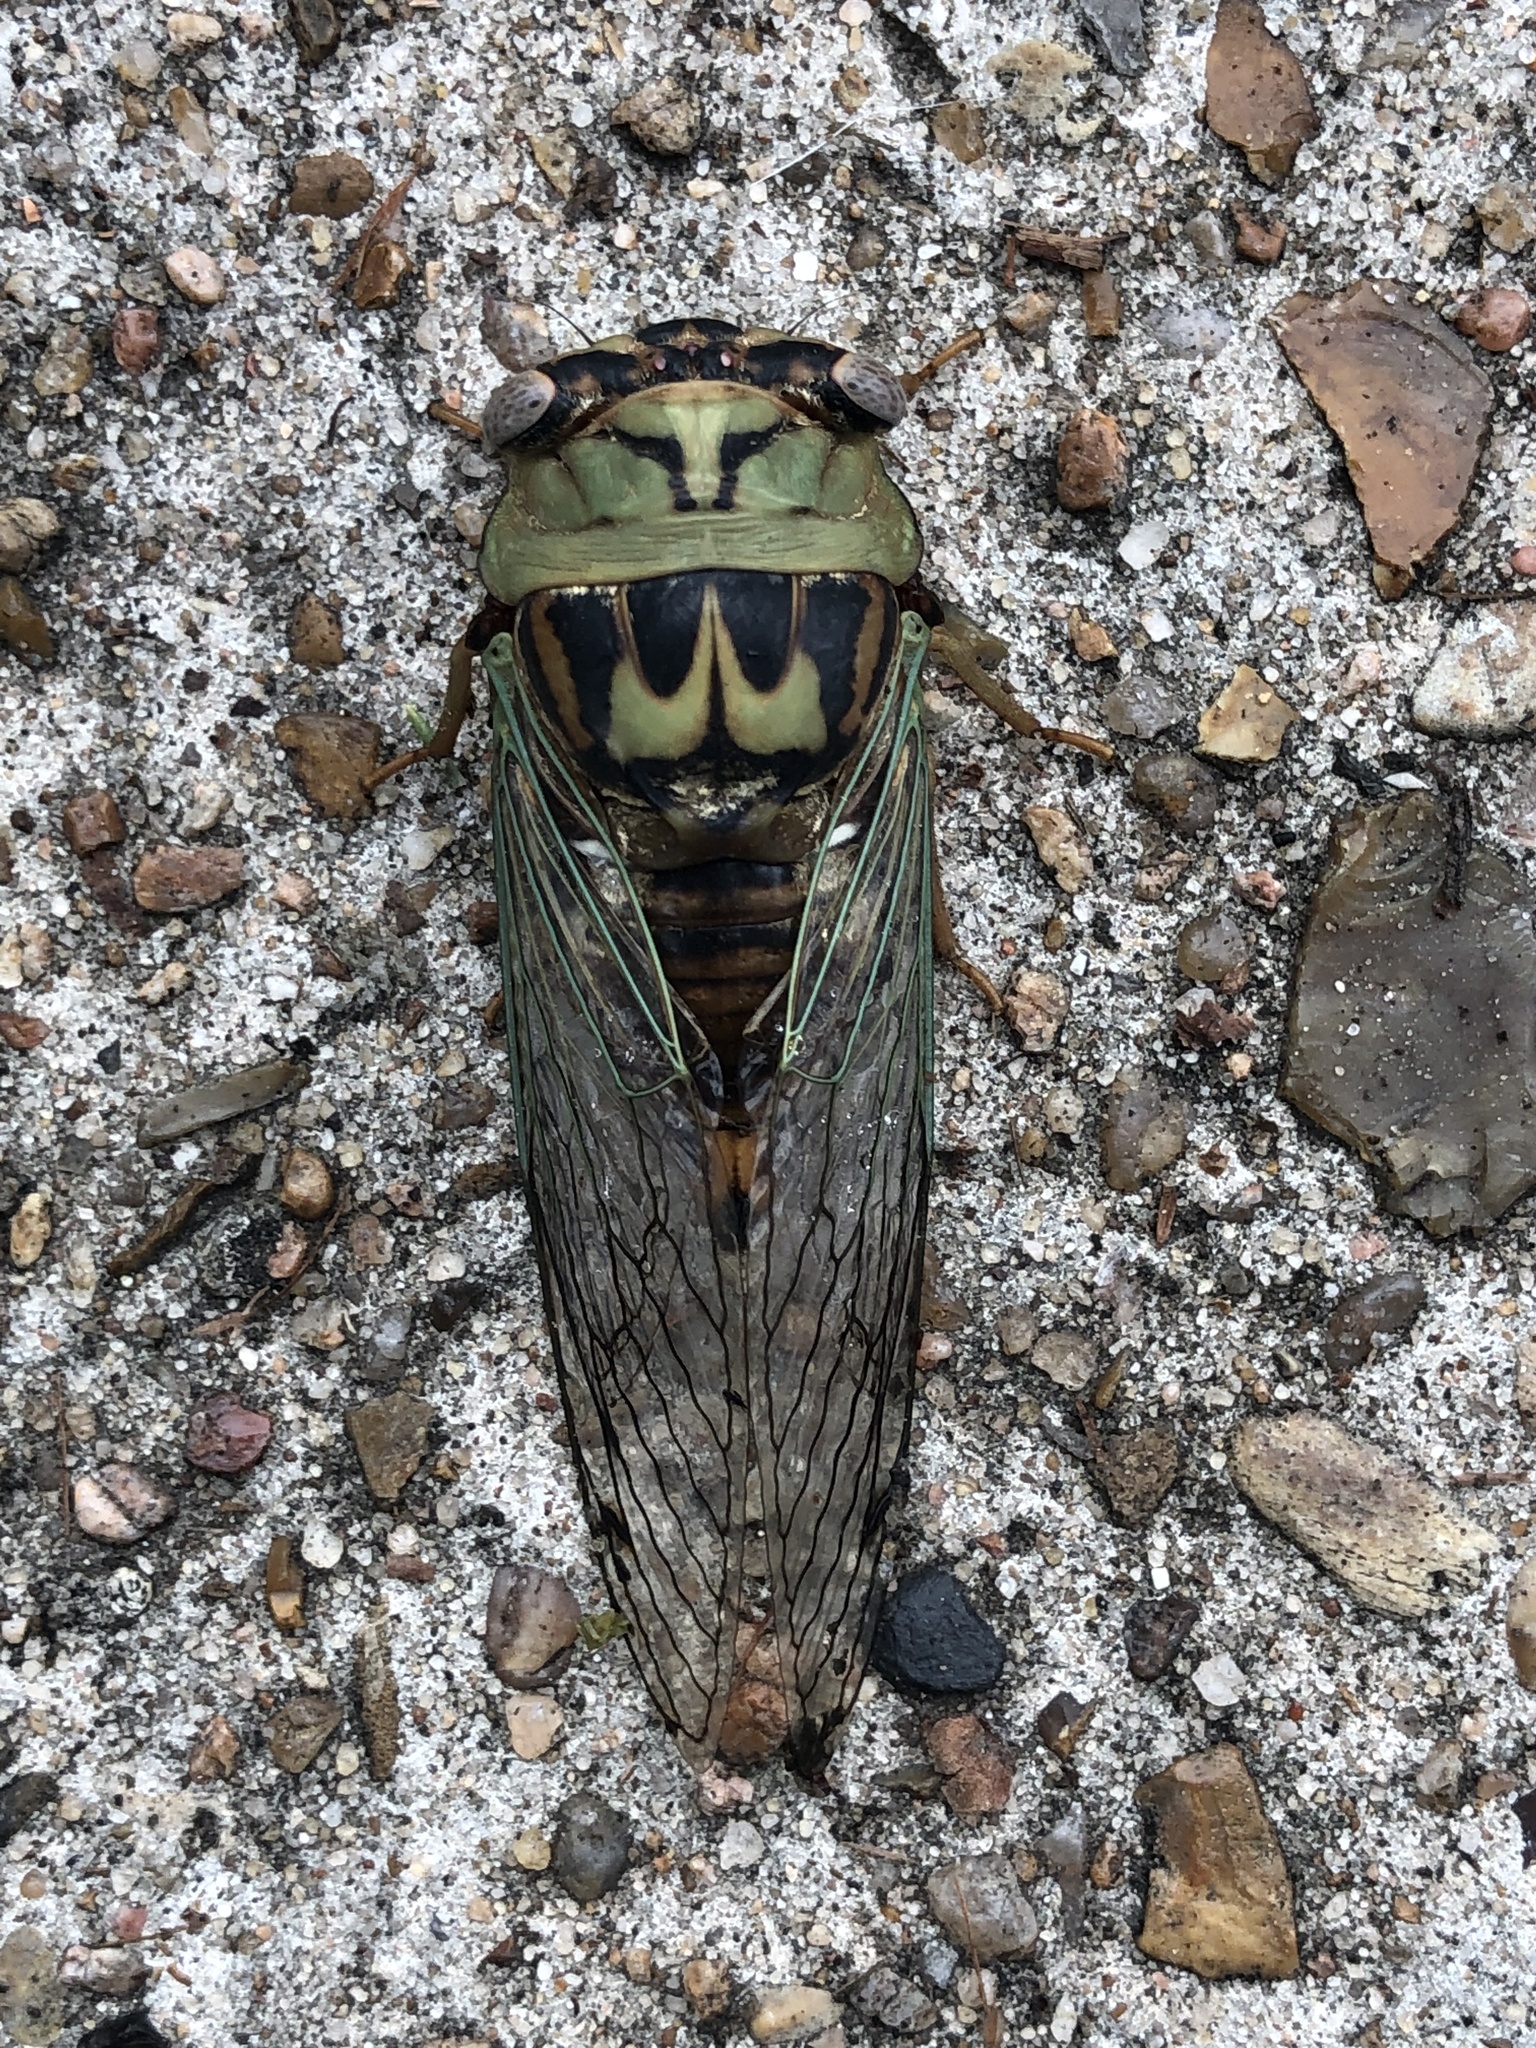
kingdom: Animalia
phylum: Arthropoda
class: Insecta
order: Hemiptera
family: Cicadidae
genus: Megatibicen
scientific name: Megatibicen resh
